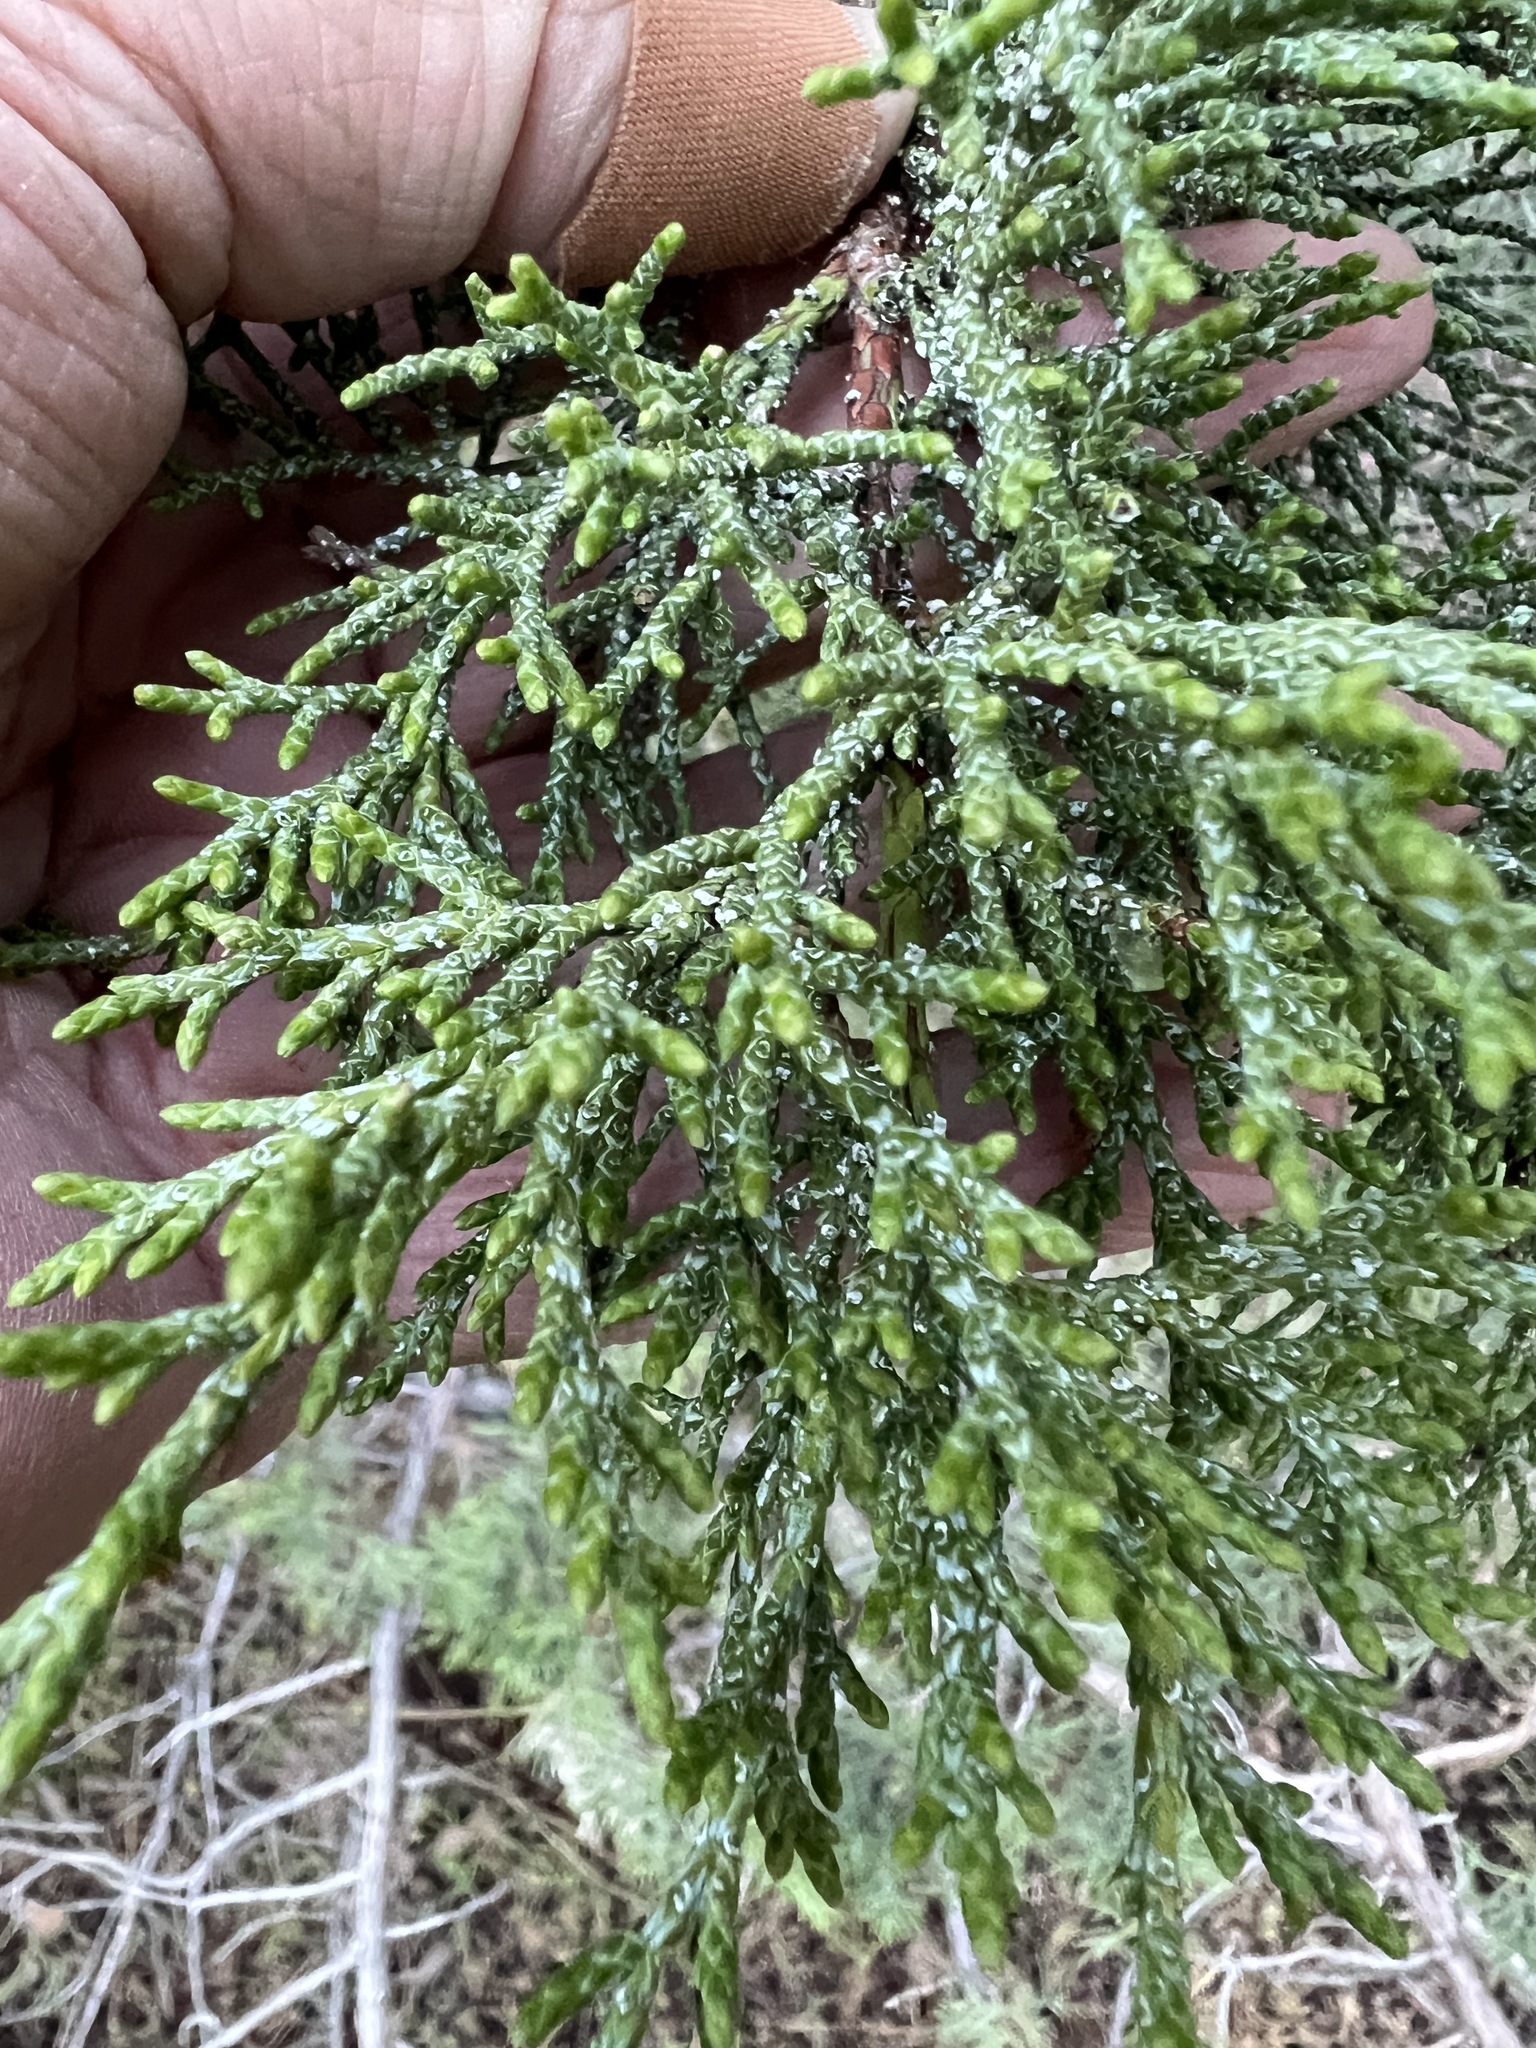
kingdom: Plantae
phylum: Tracheophyta
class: Pinopsida
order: Pinales
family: Cupressaceae
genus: Juniperus
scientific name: Juniperus occidentalis
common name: Western juniper
